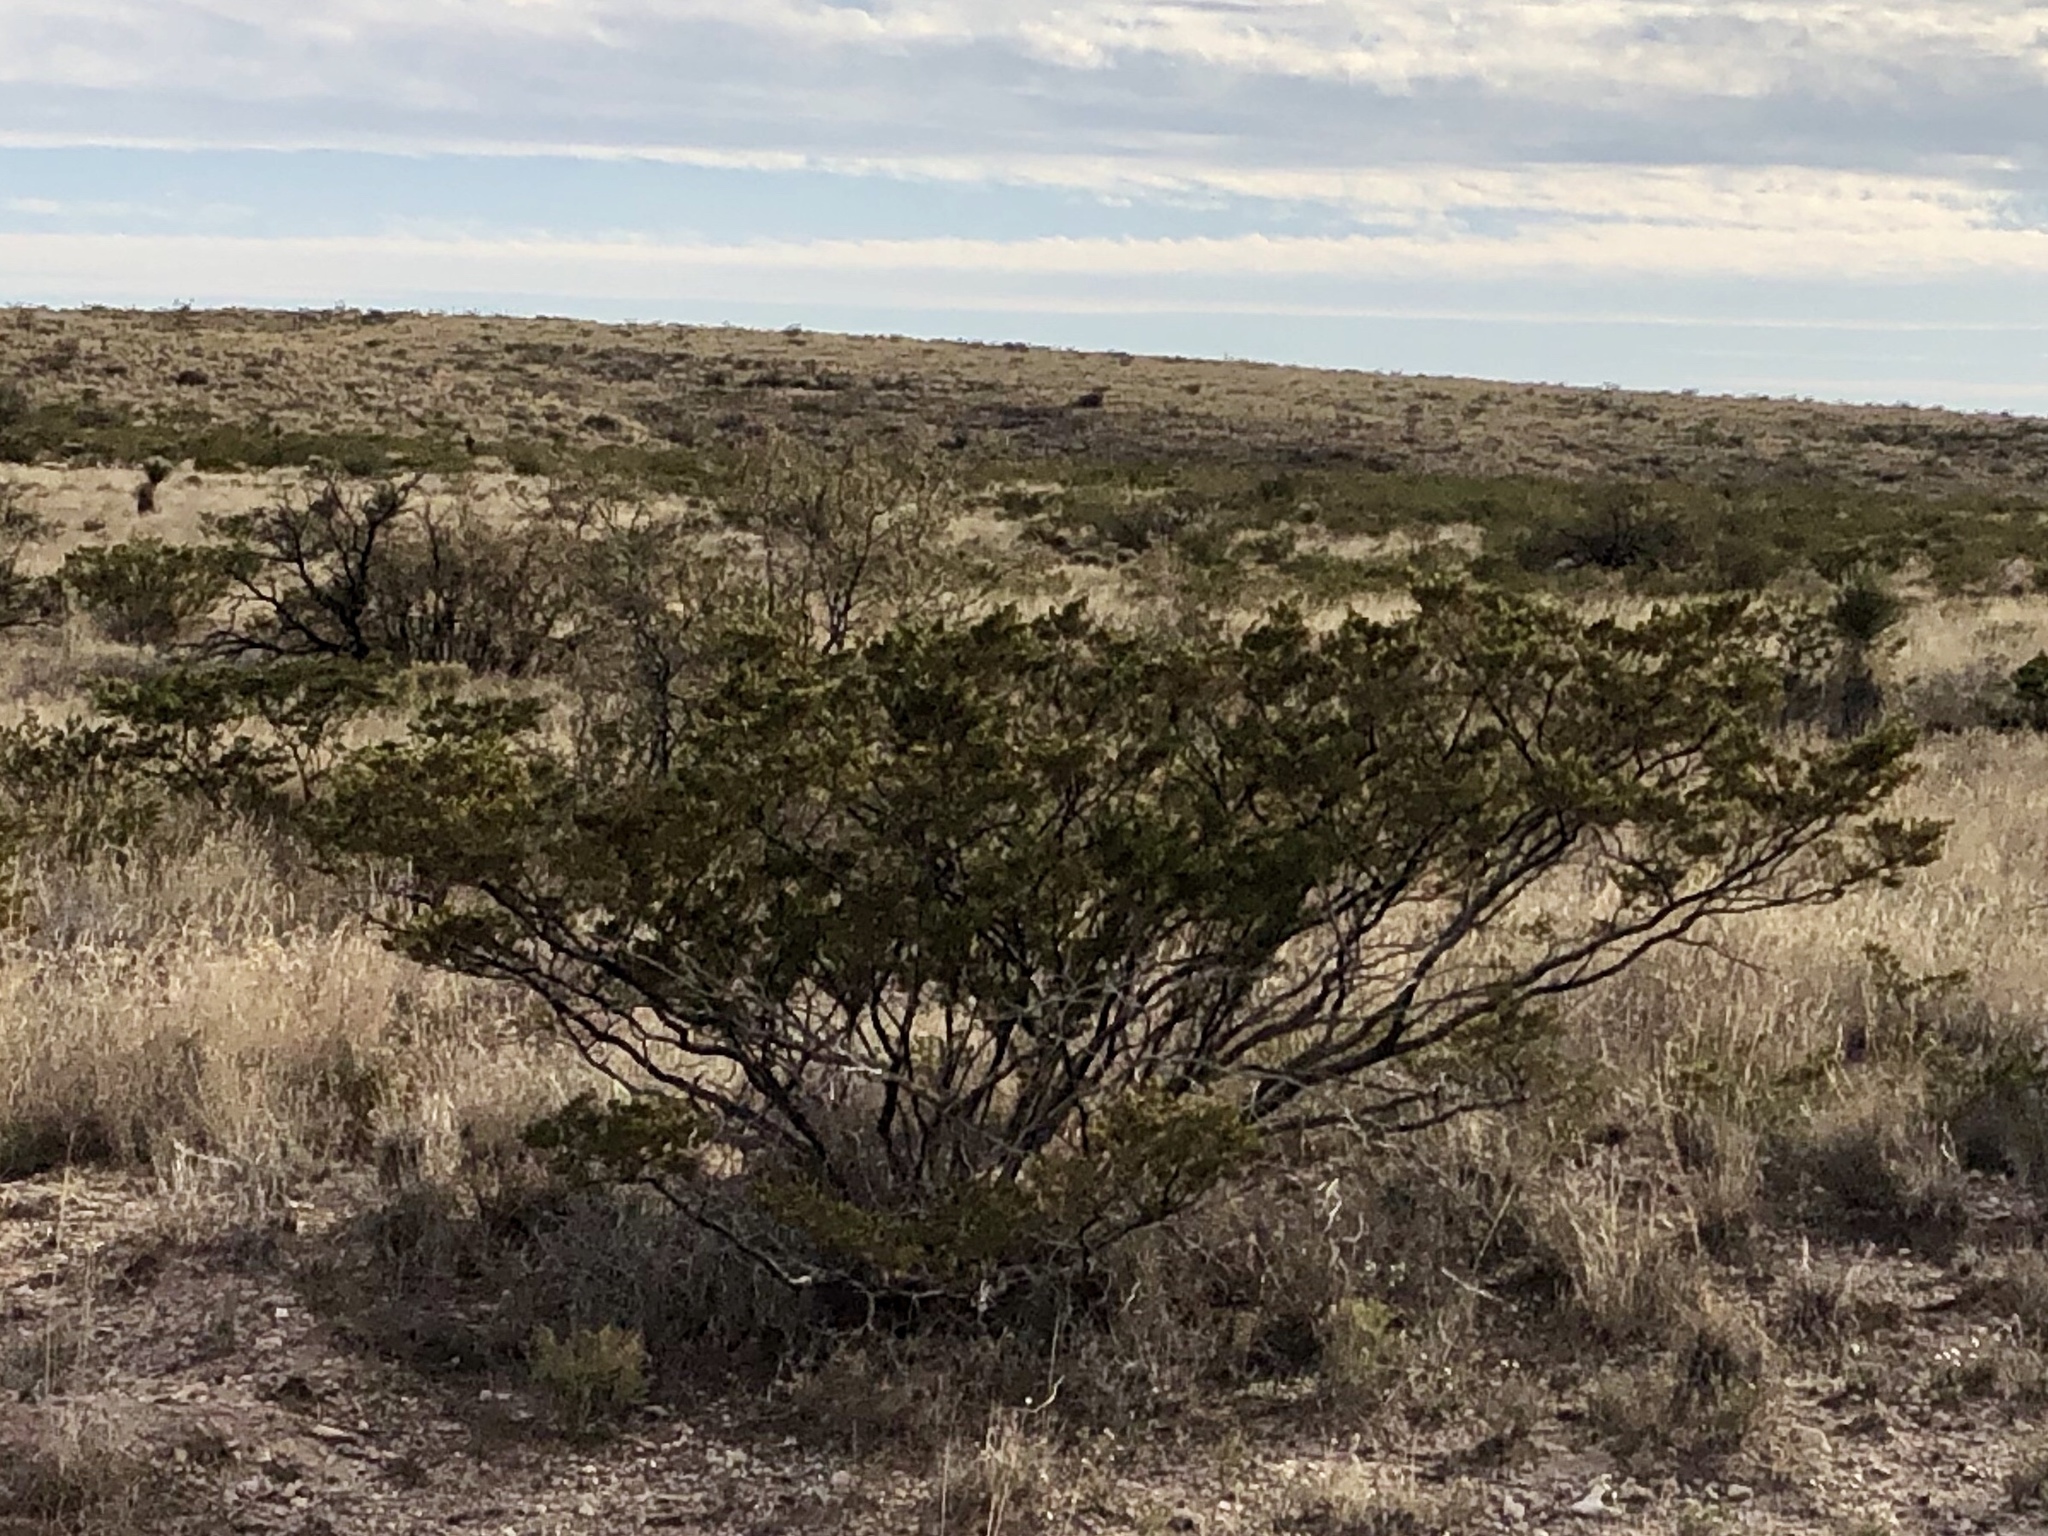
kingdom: Plantae
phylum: Tracheophyta
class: Magnoliopsida
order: Zygophyllales
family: Zygophyllaceae
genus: Larrea
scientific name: Larrea tridentata
